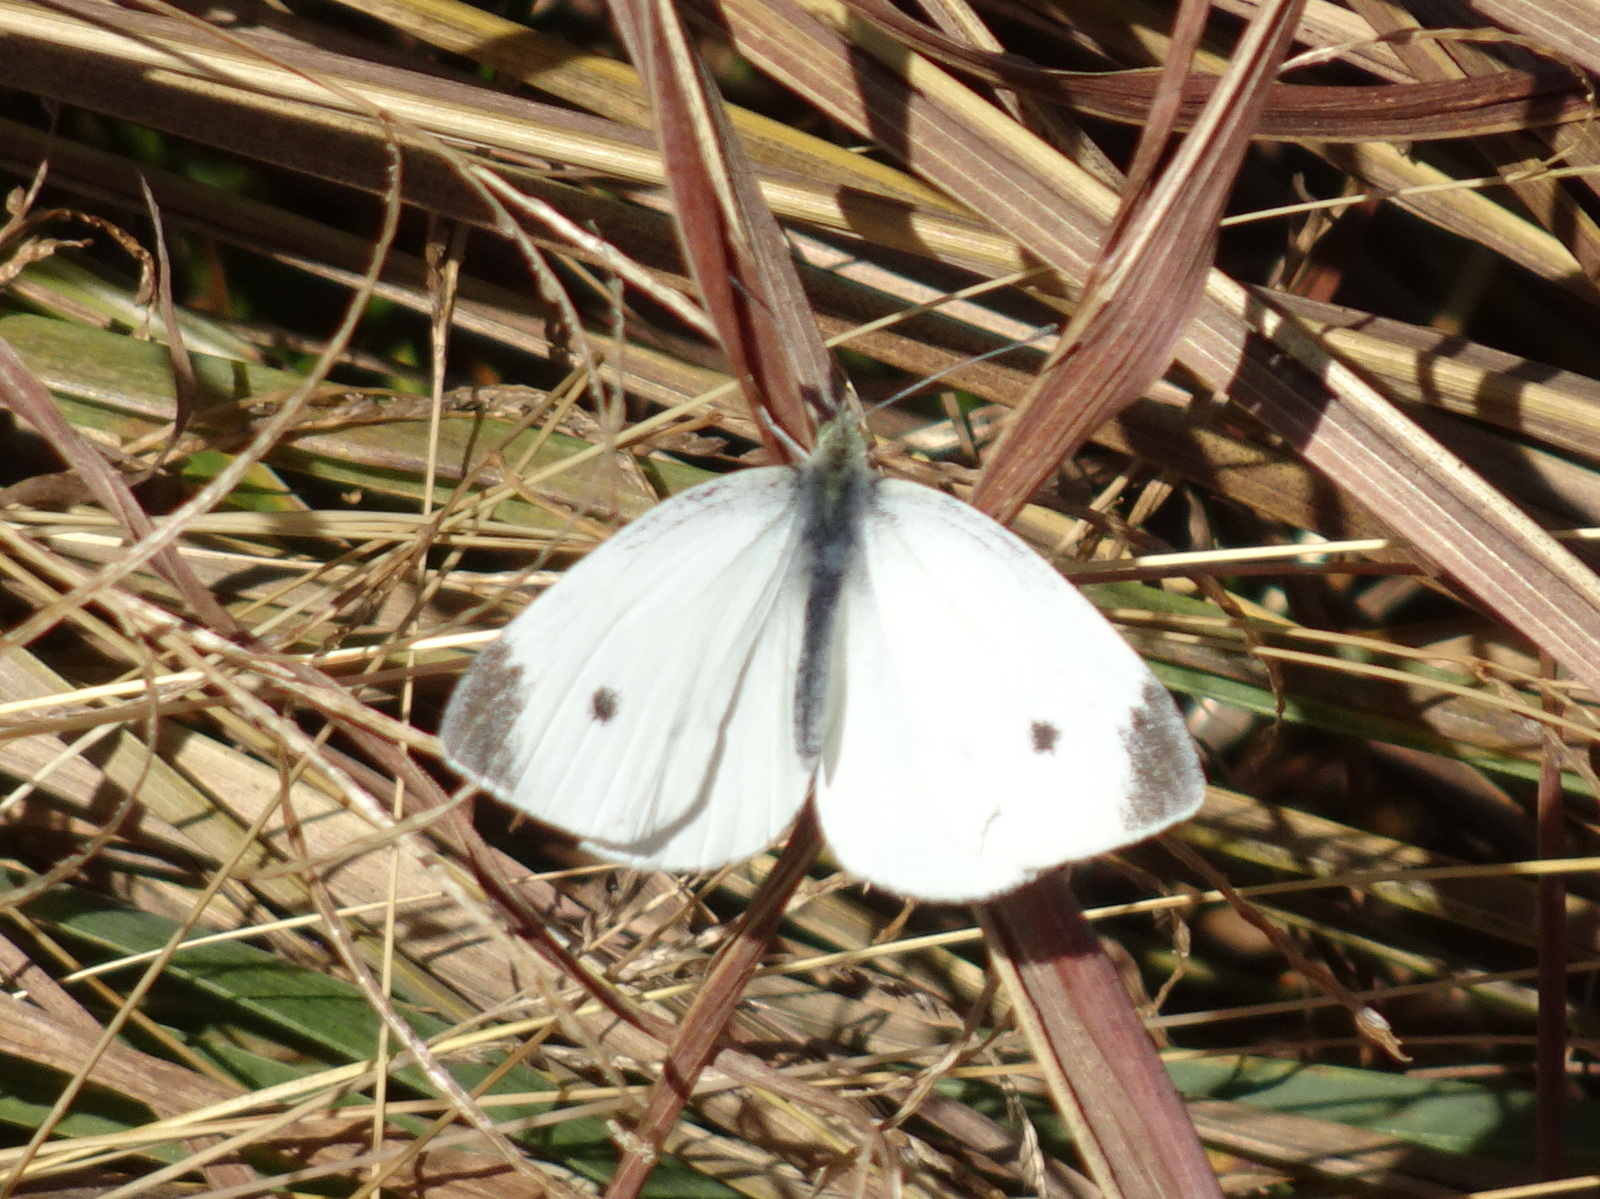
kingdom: Animalia
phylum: Arthropoda
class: Insecta
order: Lepidoptera
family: Pieridae
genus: Pieris
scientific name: Pieris rapae
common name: Small white
